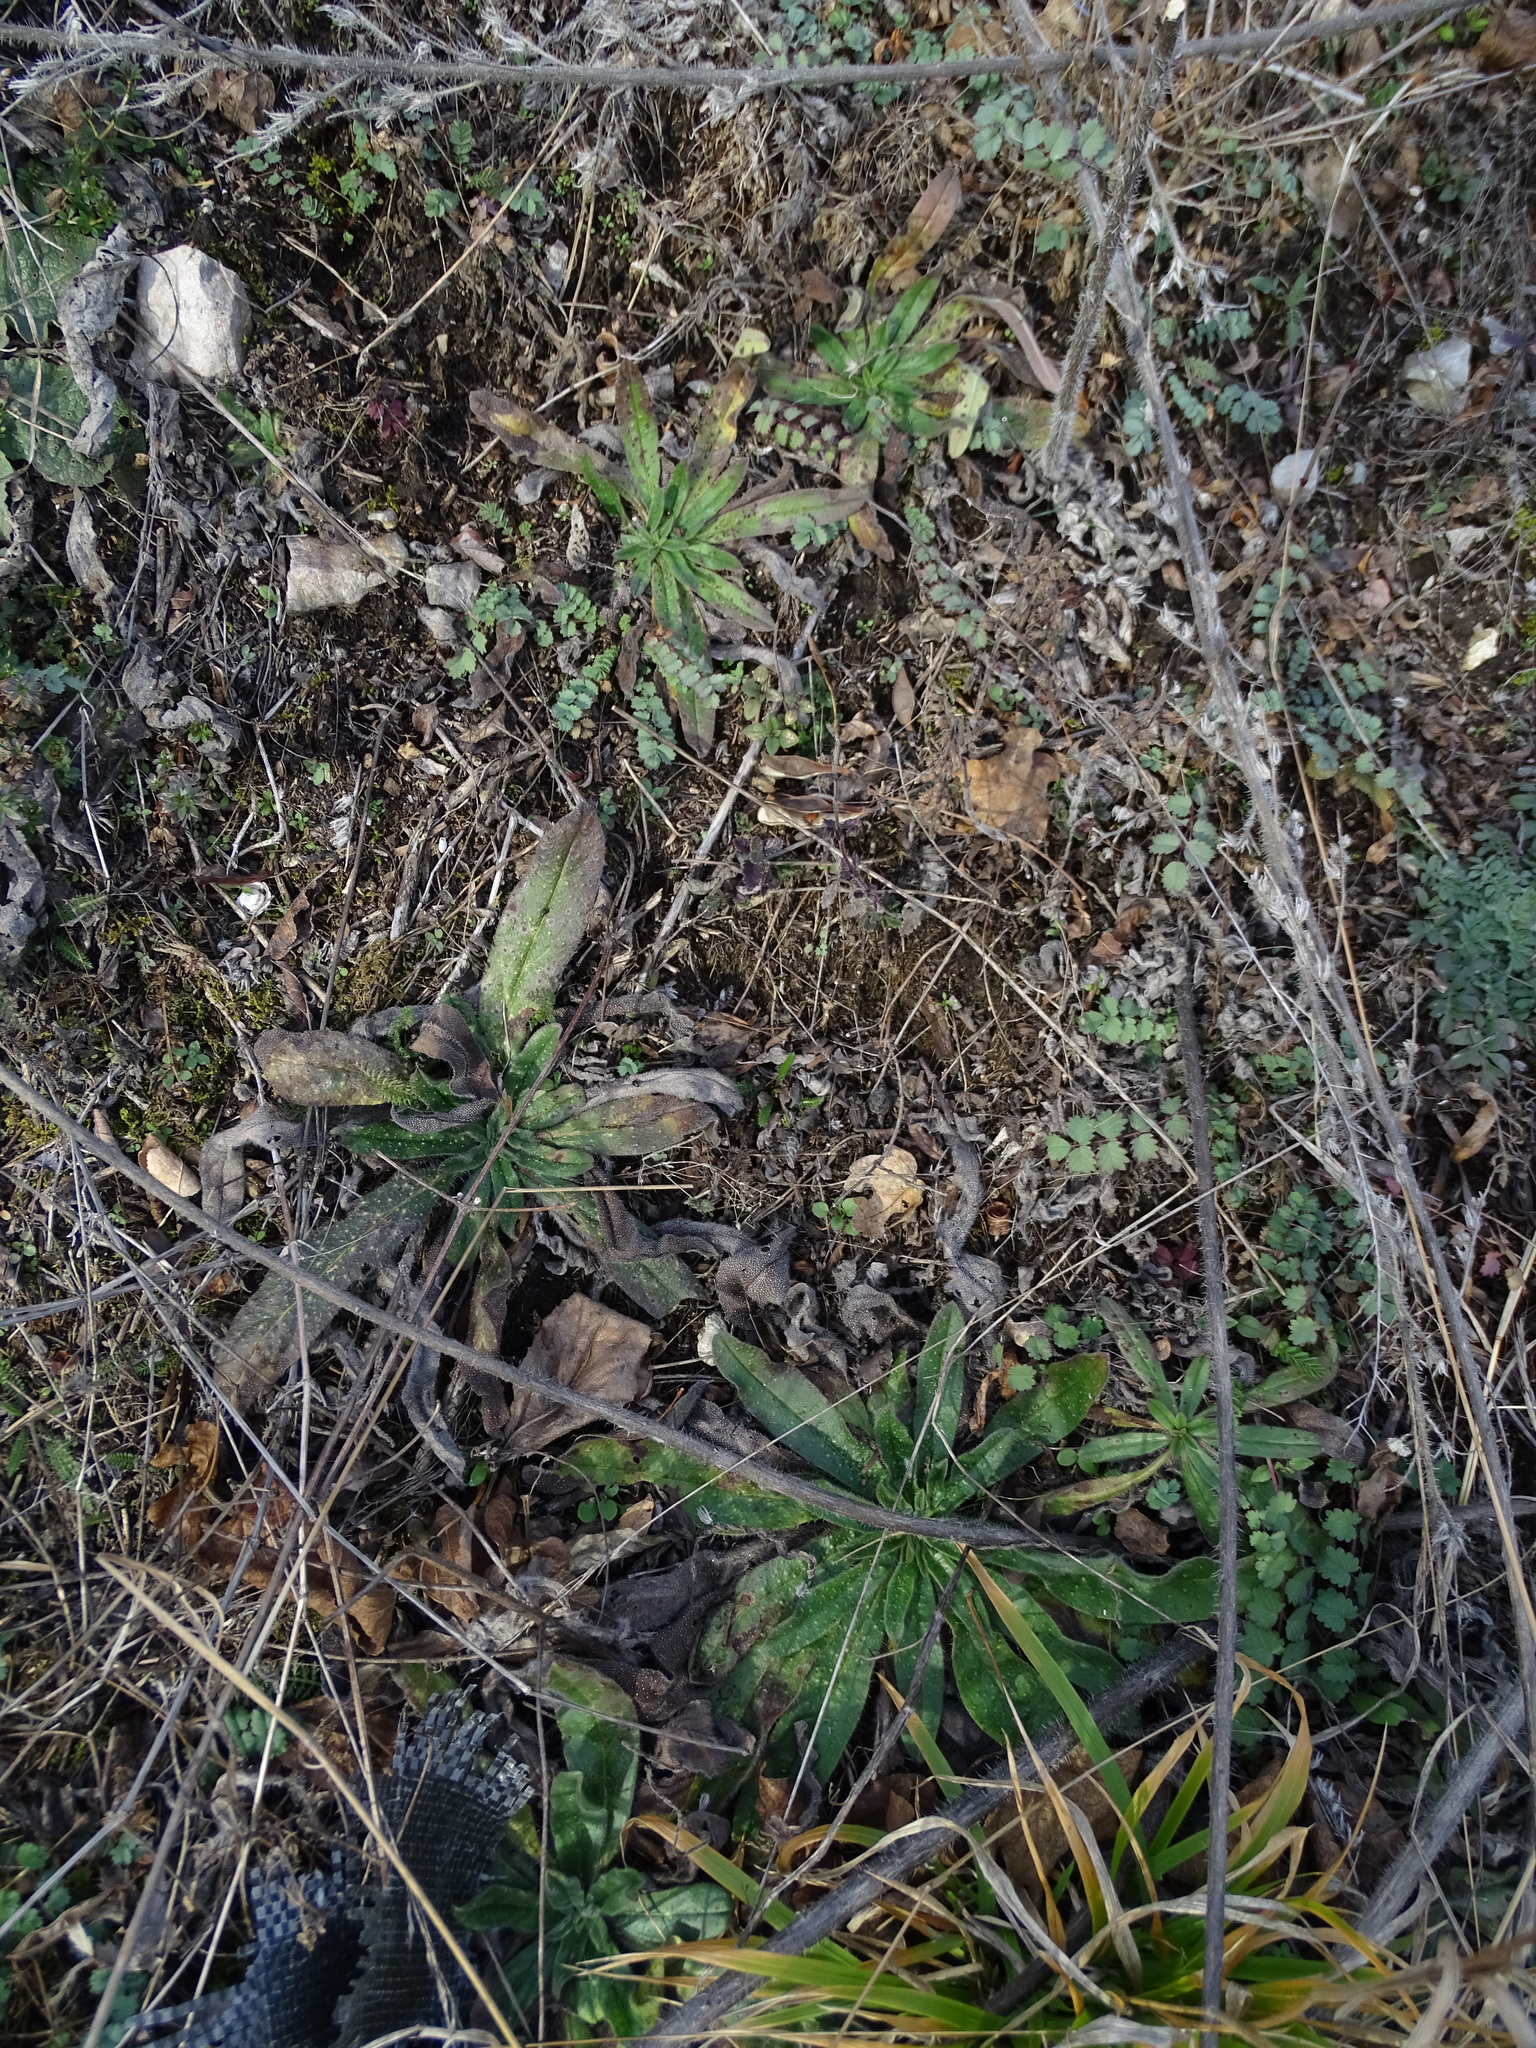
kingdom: Plantae
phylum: Tracheophyta
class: Magnoliopsida
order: Boraginales
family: Boraginaceae
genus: Echium
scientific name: Echium vulgare
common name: Common viper's bugloss
